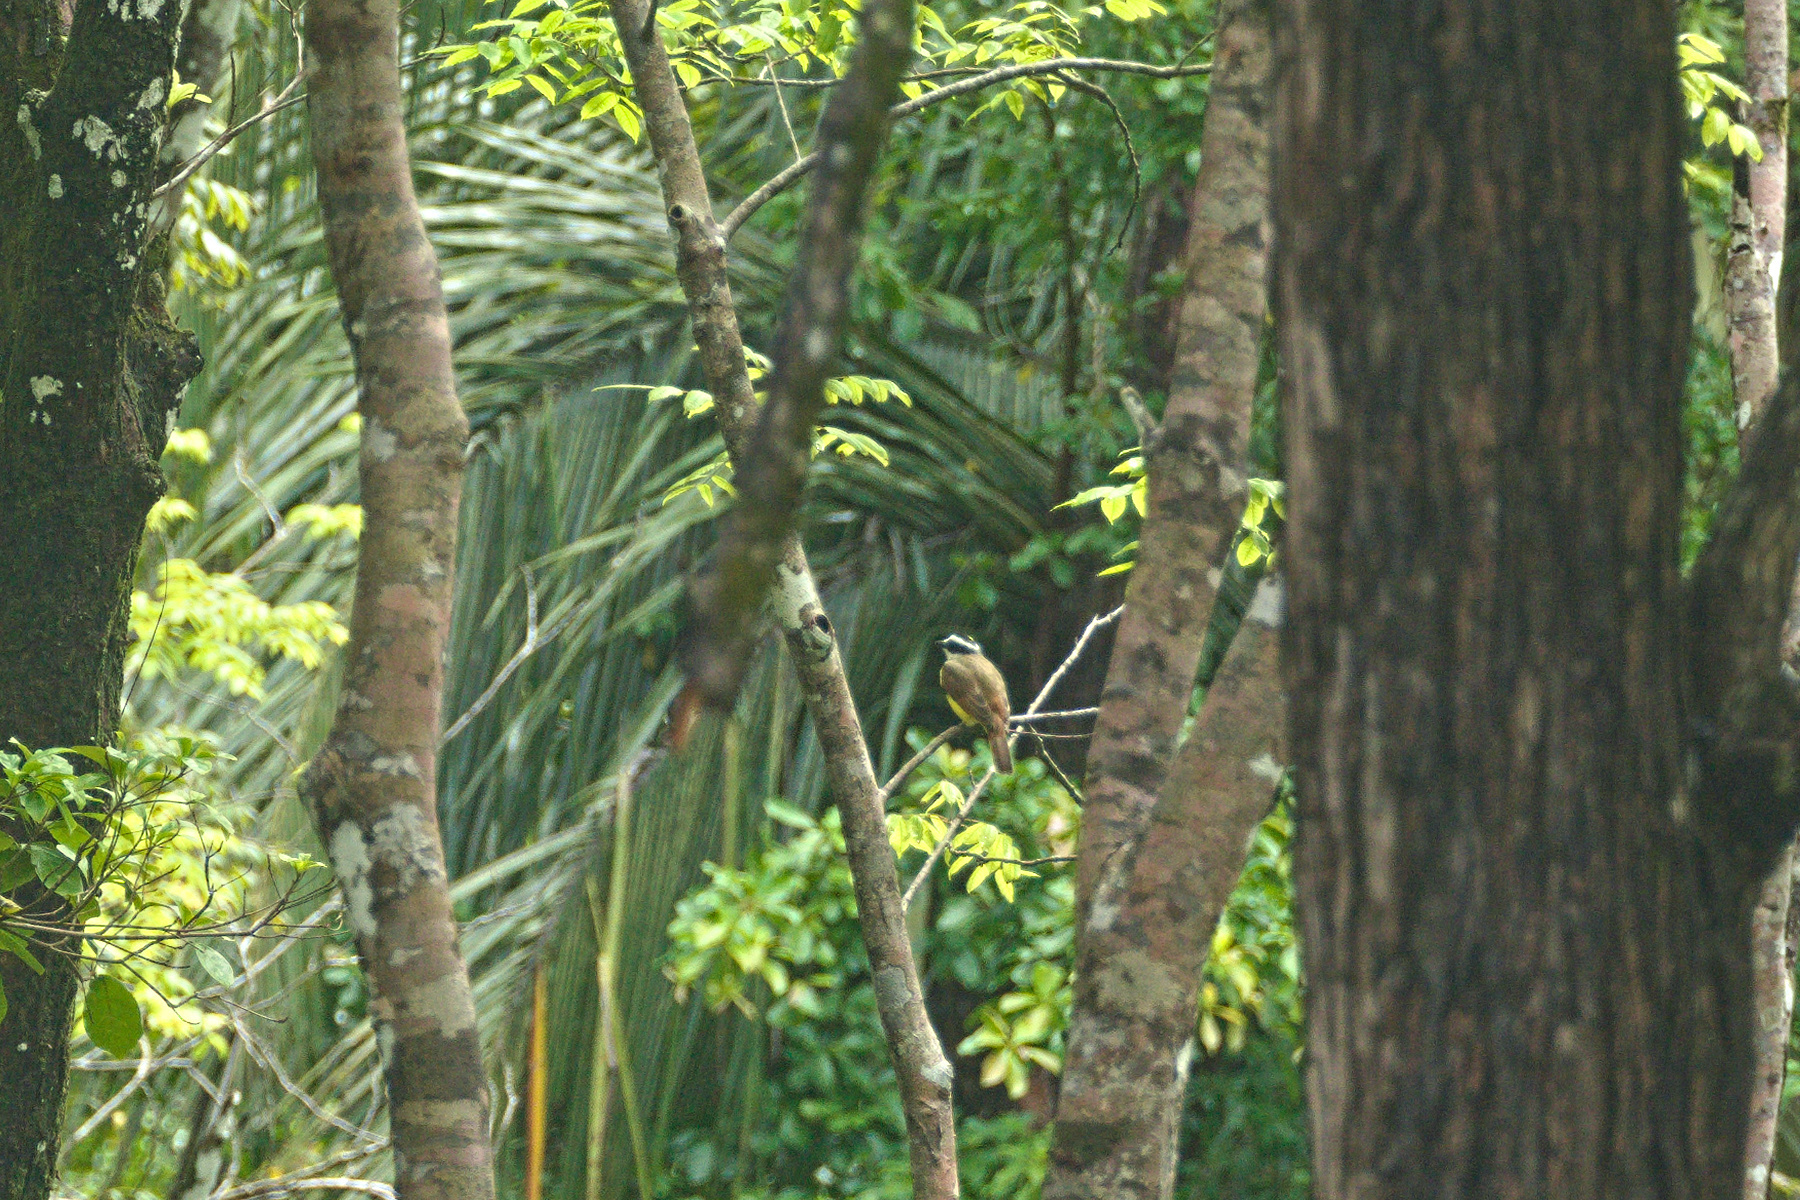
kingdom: Animalia
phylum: Chordata
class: Aves
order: Passeriformes
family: Tyrannidae
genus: Pitangus
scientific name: Pitangus sulphuratus
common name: Great kiskadee
